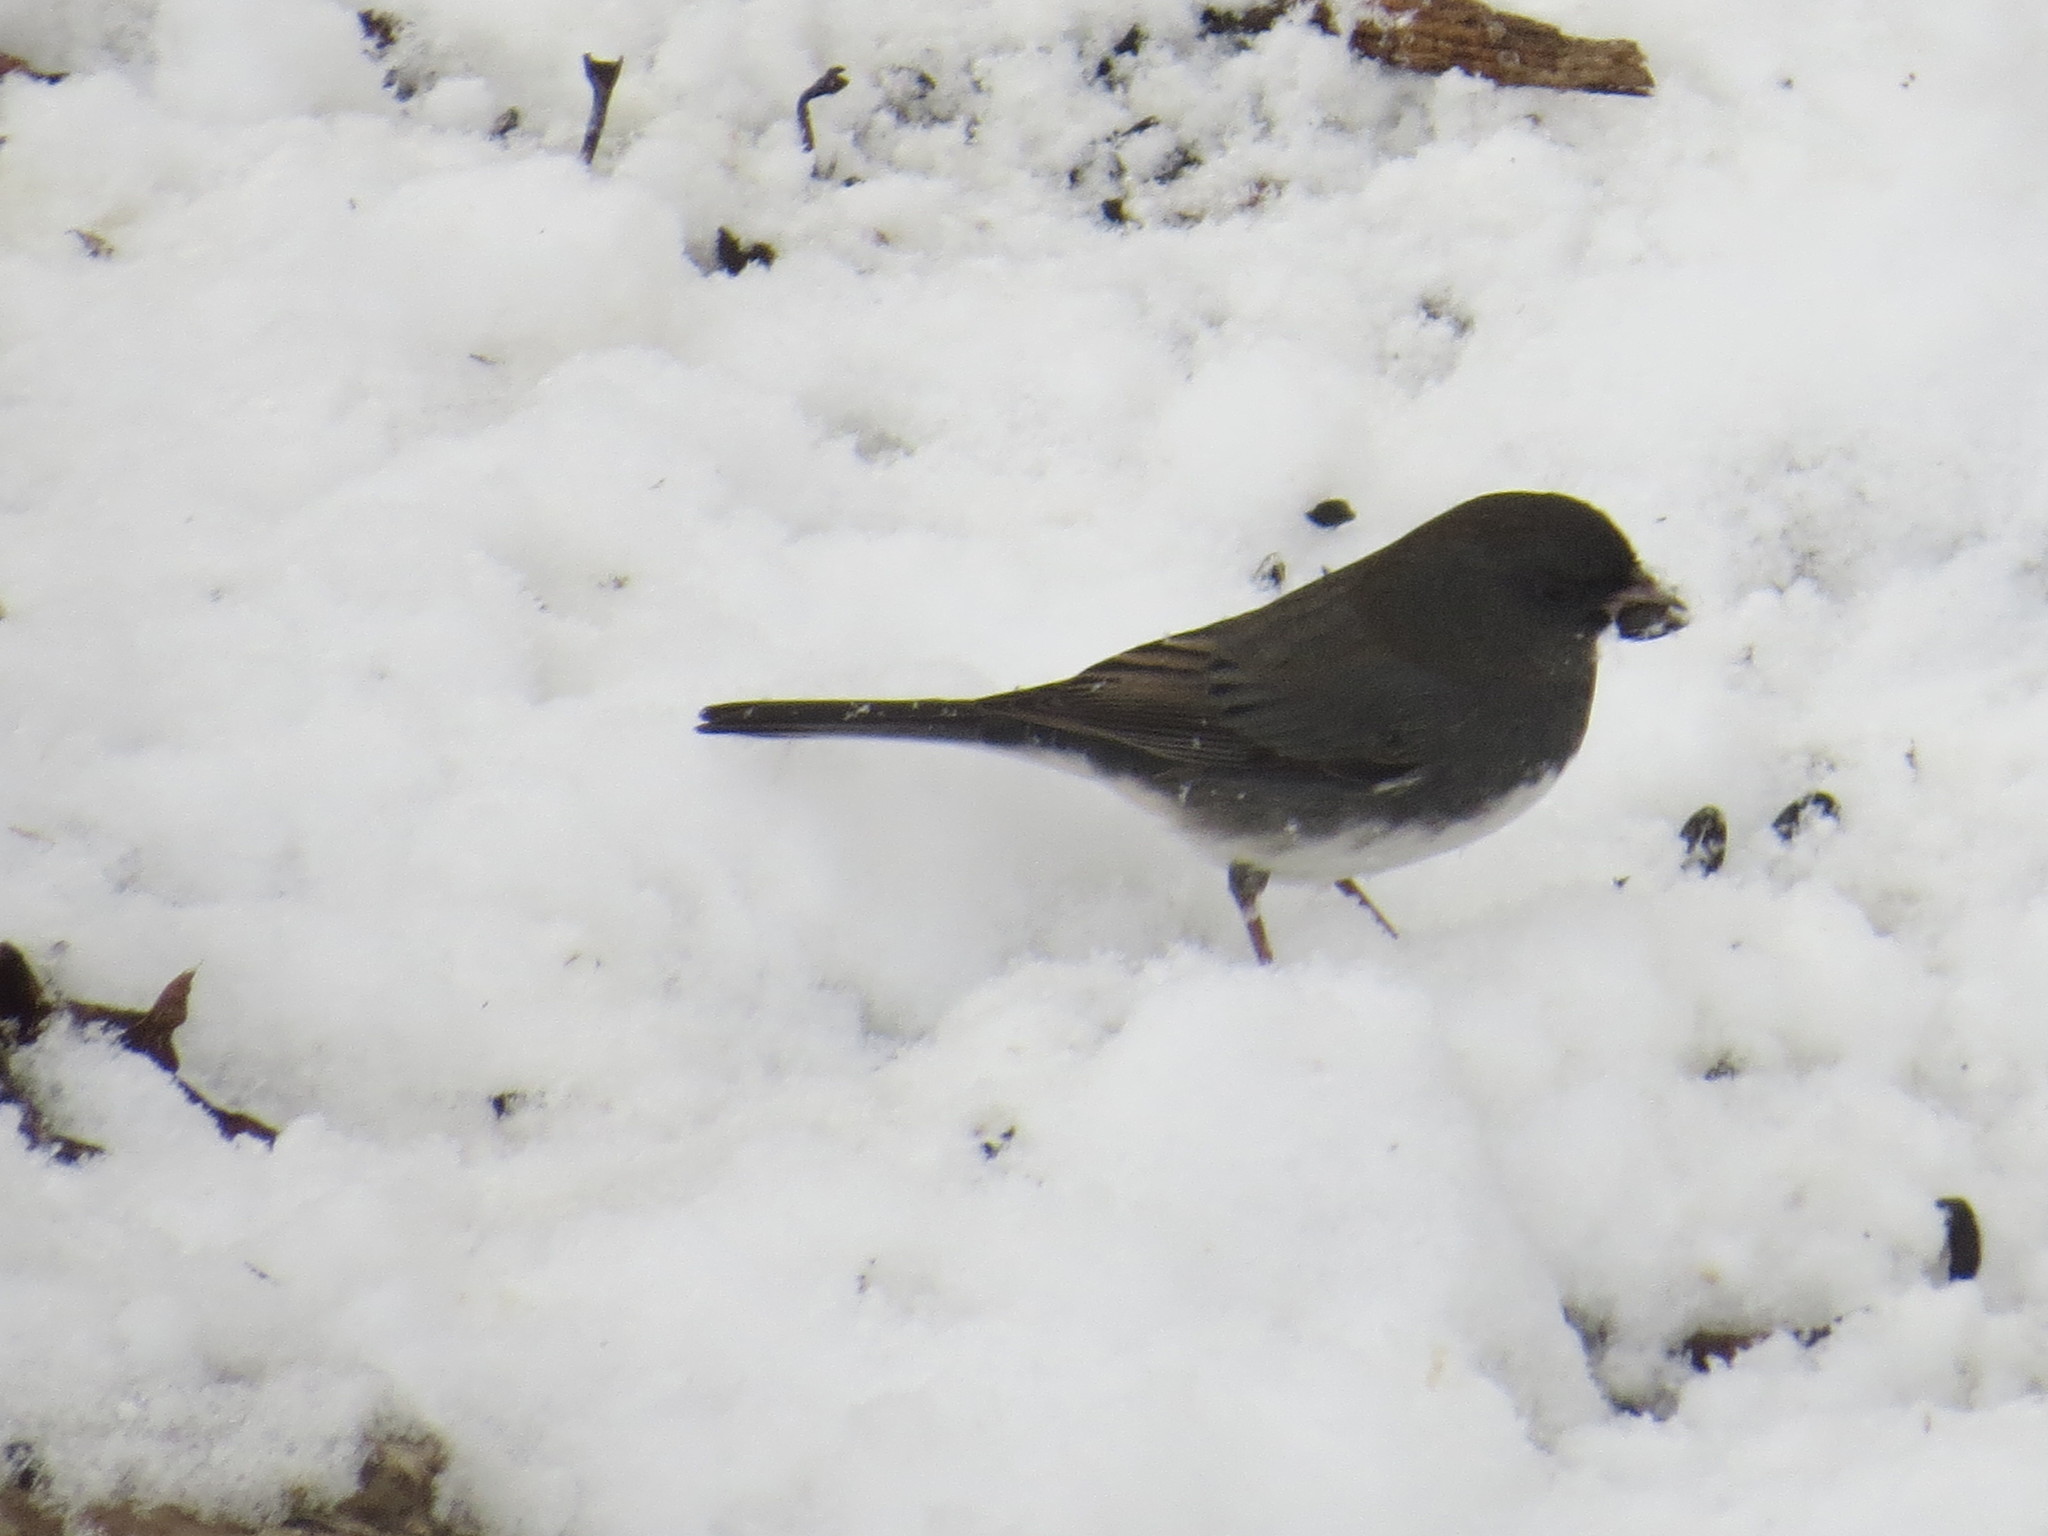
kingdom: Animalia
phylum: Chordata
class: Aves
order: Passeriformes
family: Passerellidae
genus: Junco
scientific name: Junco hyemalis
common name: Dark-eyed junco
